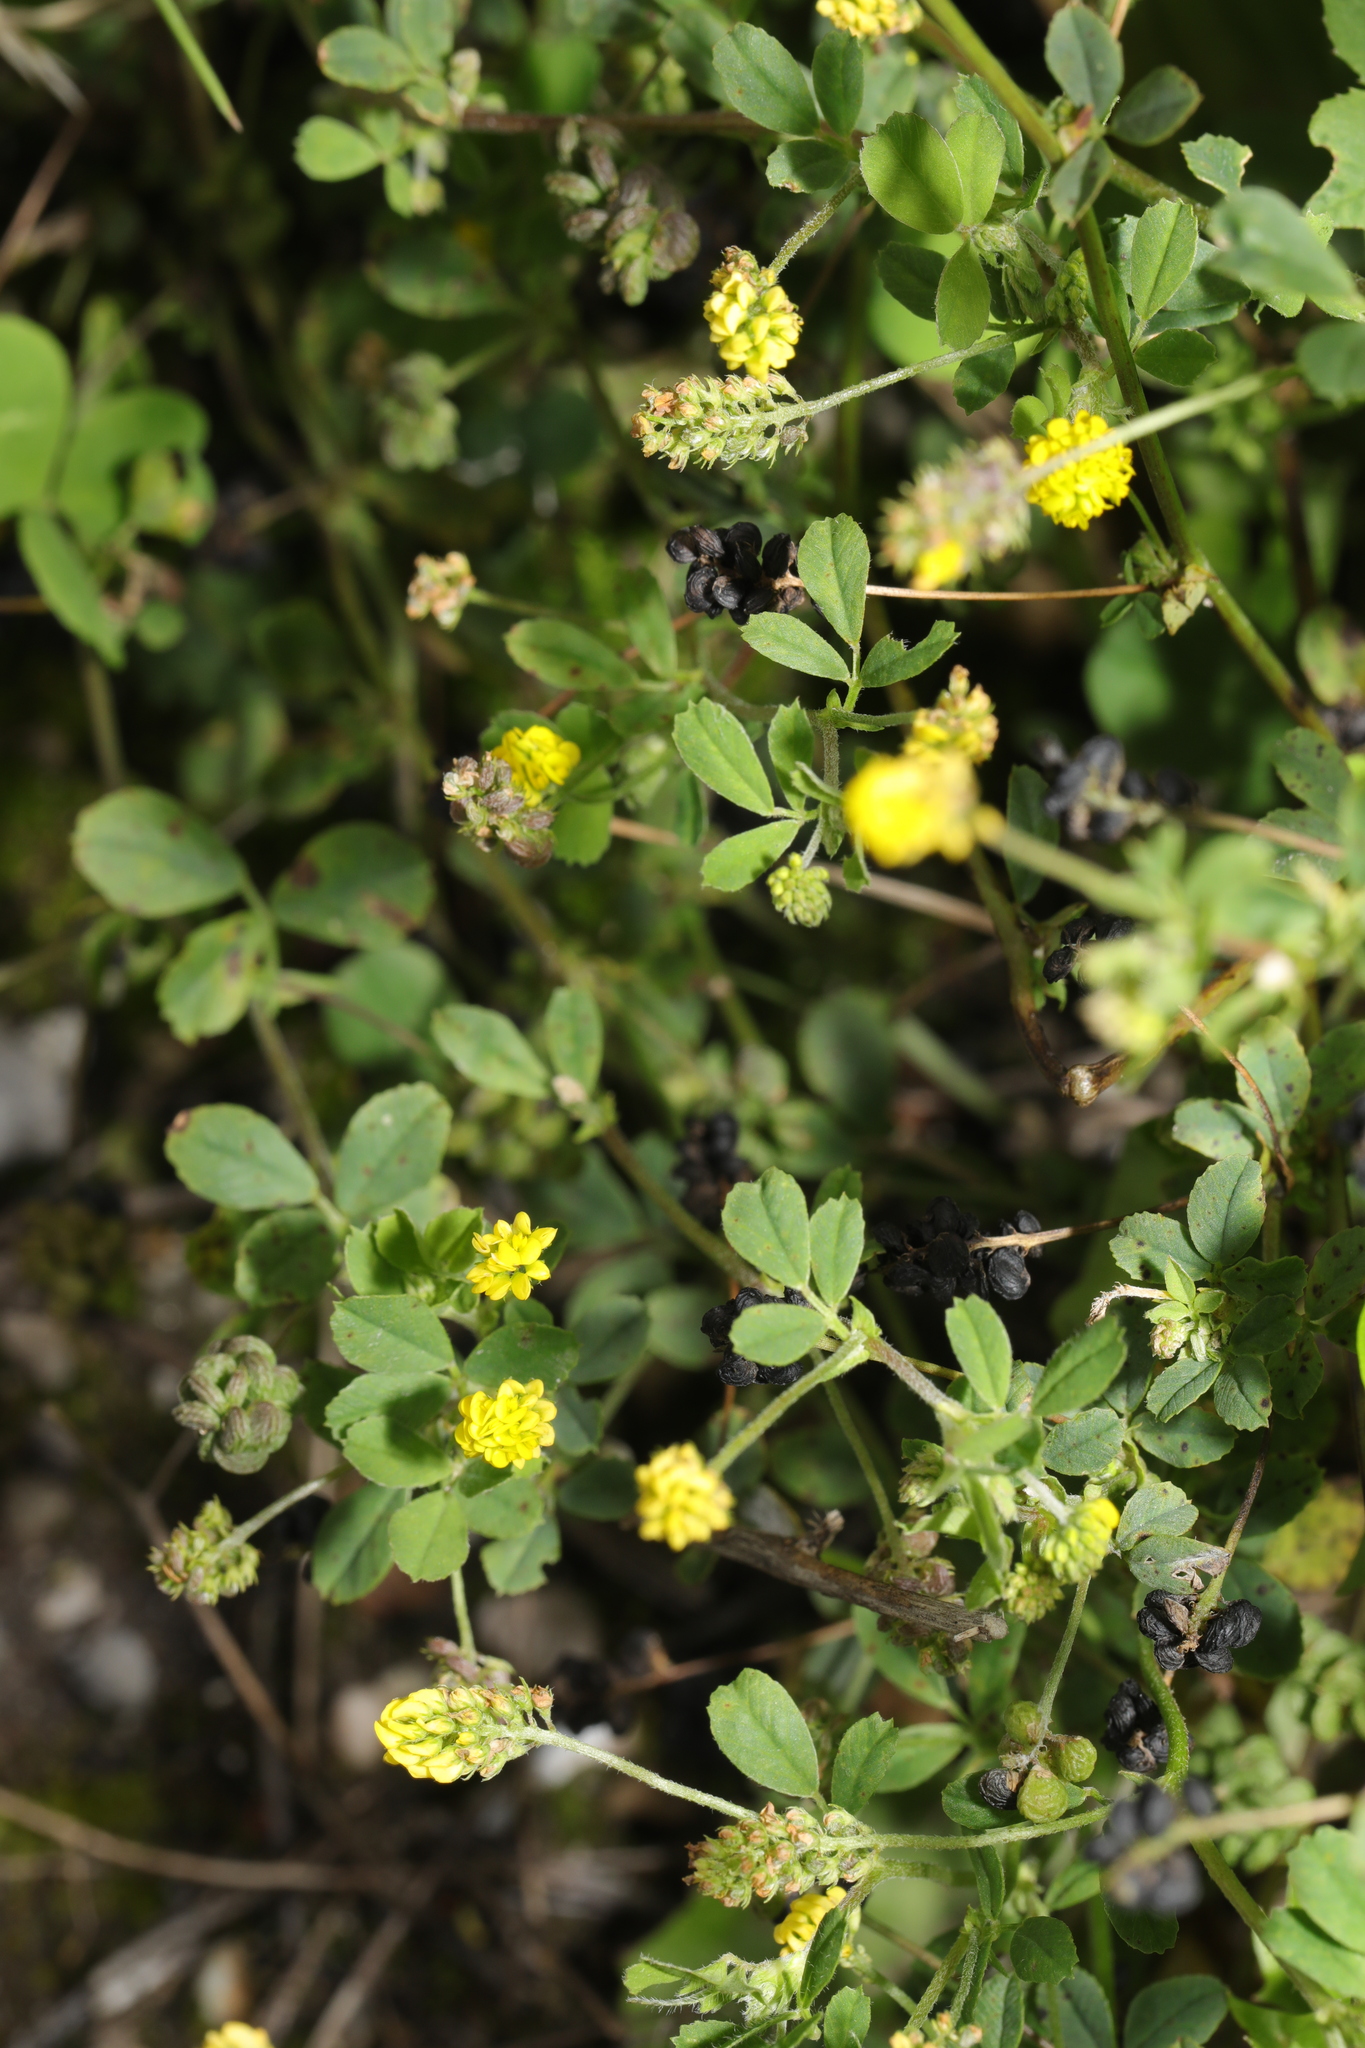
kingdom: Plantae
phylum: Tracheophyta
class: Magnoliopsida
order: Fabales
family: Fabaceae
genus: Medicago
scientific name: Medicago lupulina
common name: Black medick
